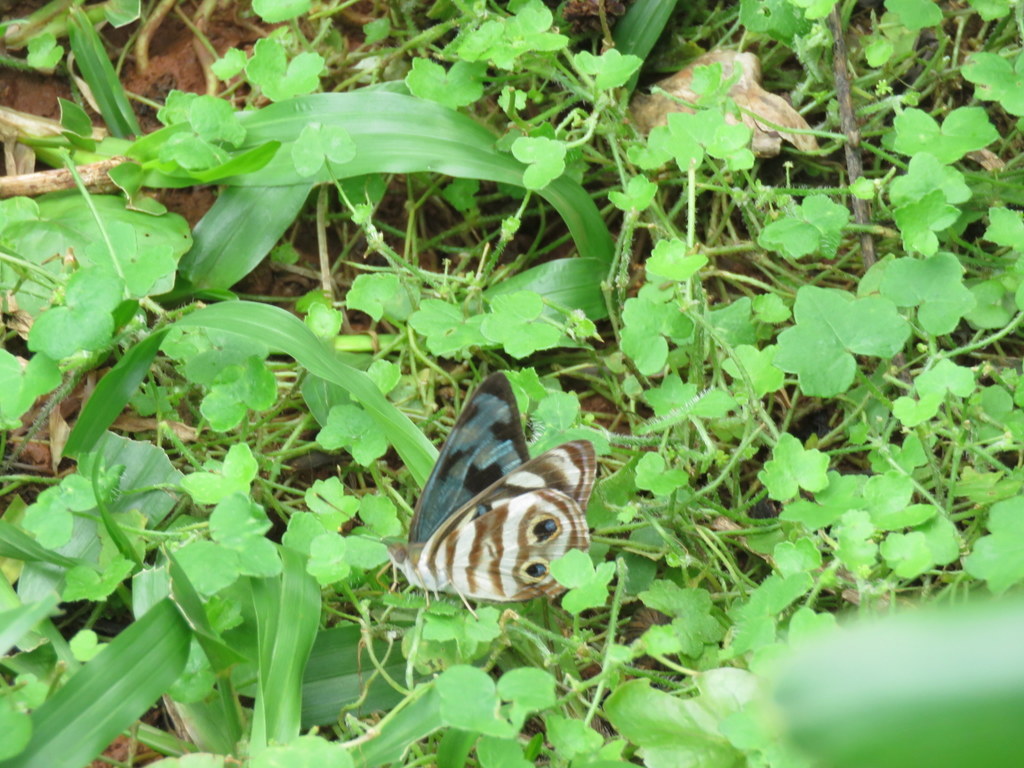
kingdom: Animalia
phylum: Arthropoda
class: Insecta
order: Lepidoptera
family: Nymphalidae
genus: Dynamine
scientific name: Dynamine mylitta
